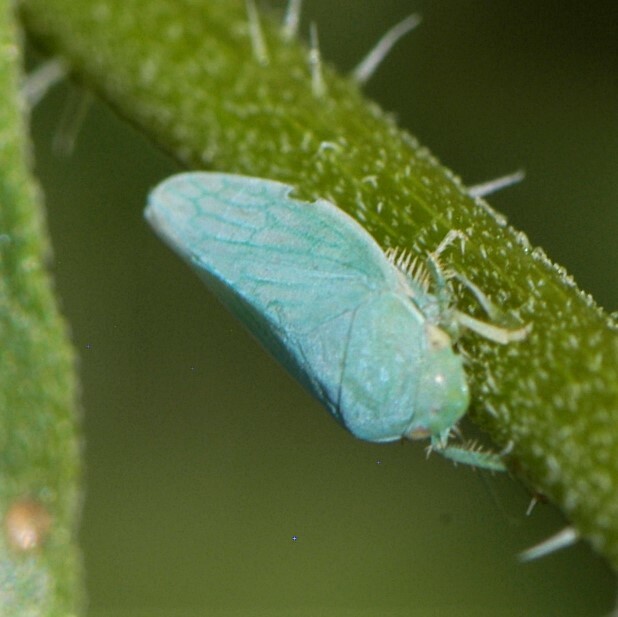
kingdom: Animalia
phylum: Arthropoda
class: Insecta
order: Hemiptera
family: Cicadellidae
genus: Gyponana
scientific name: Gyponana
